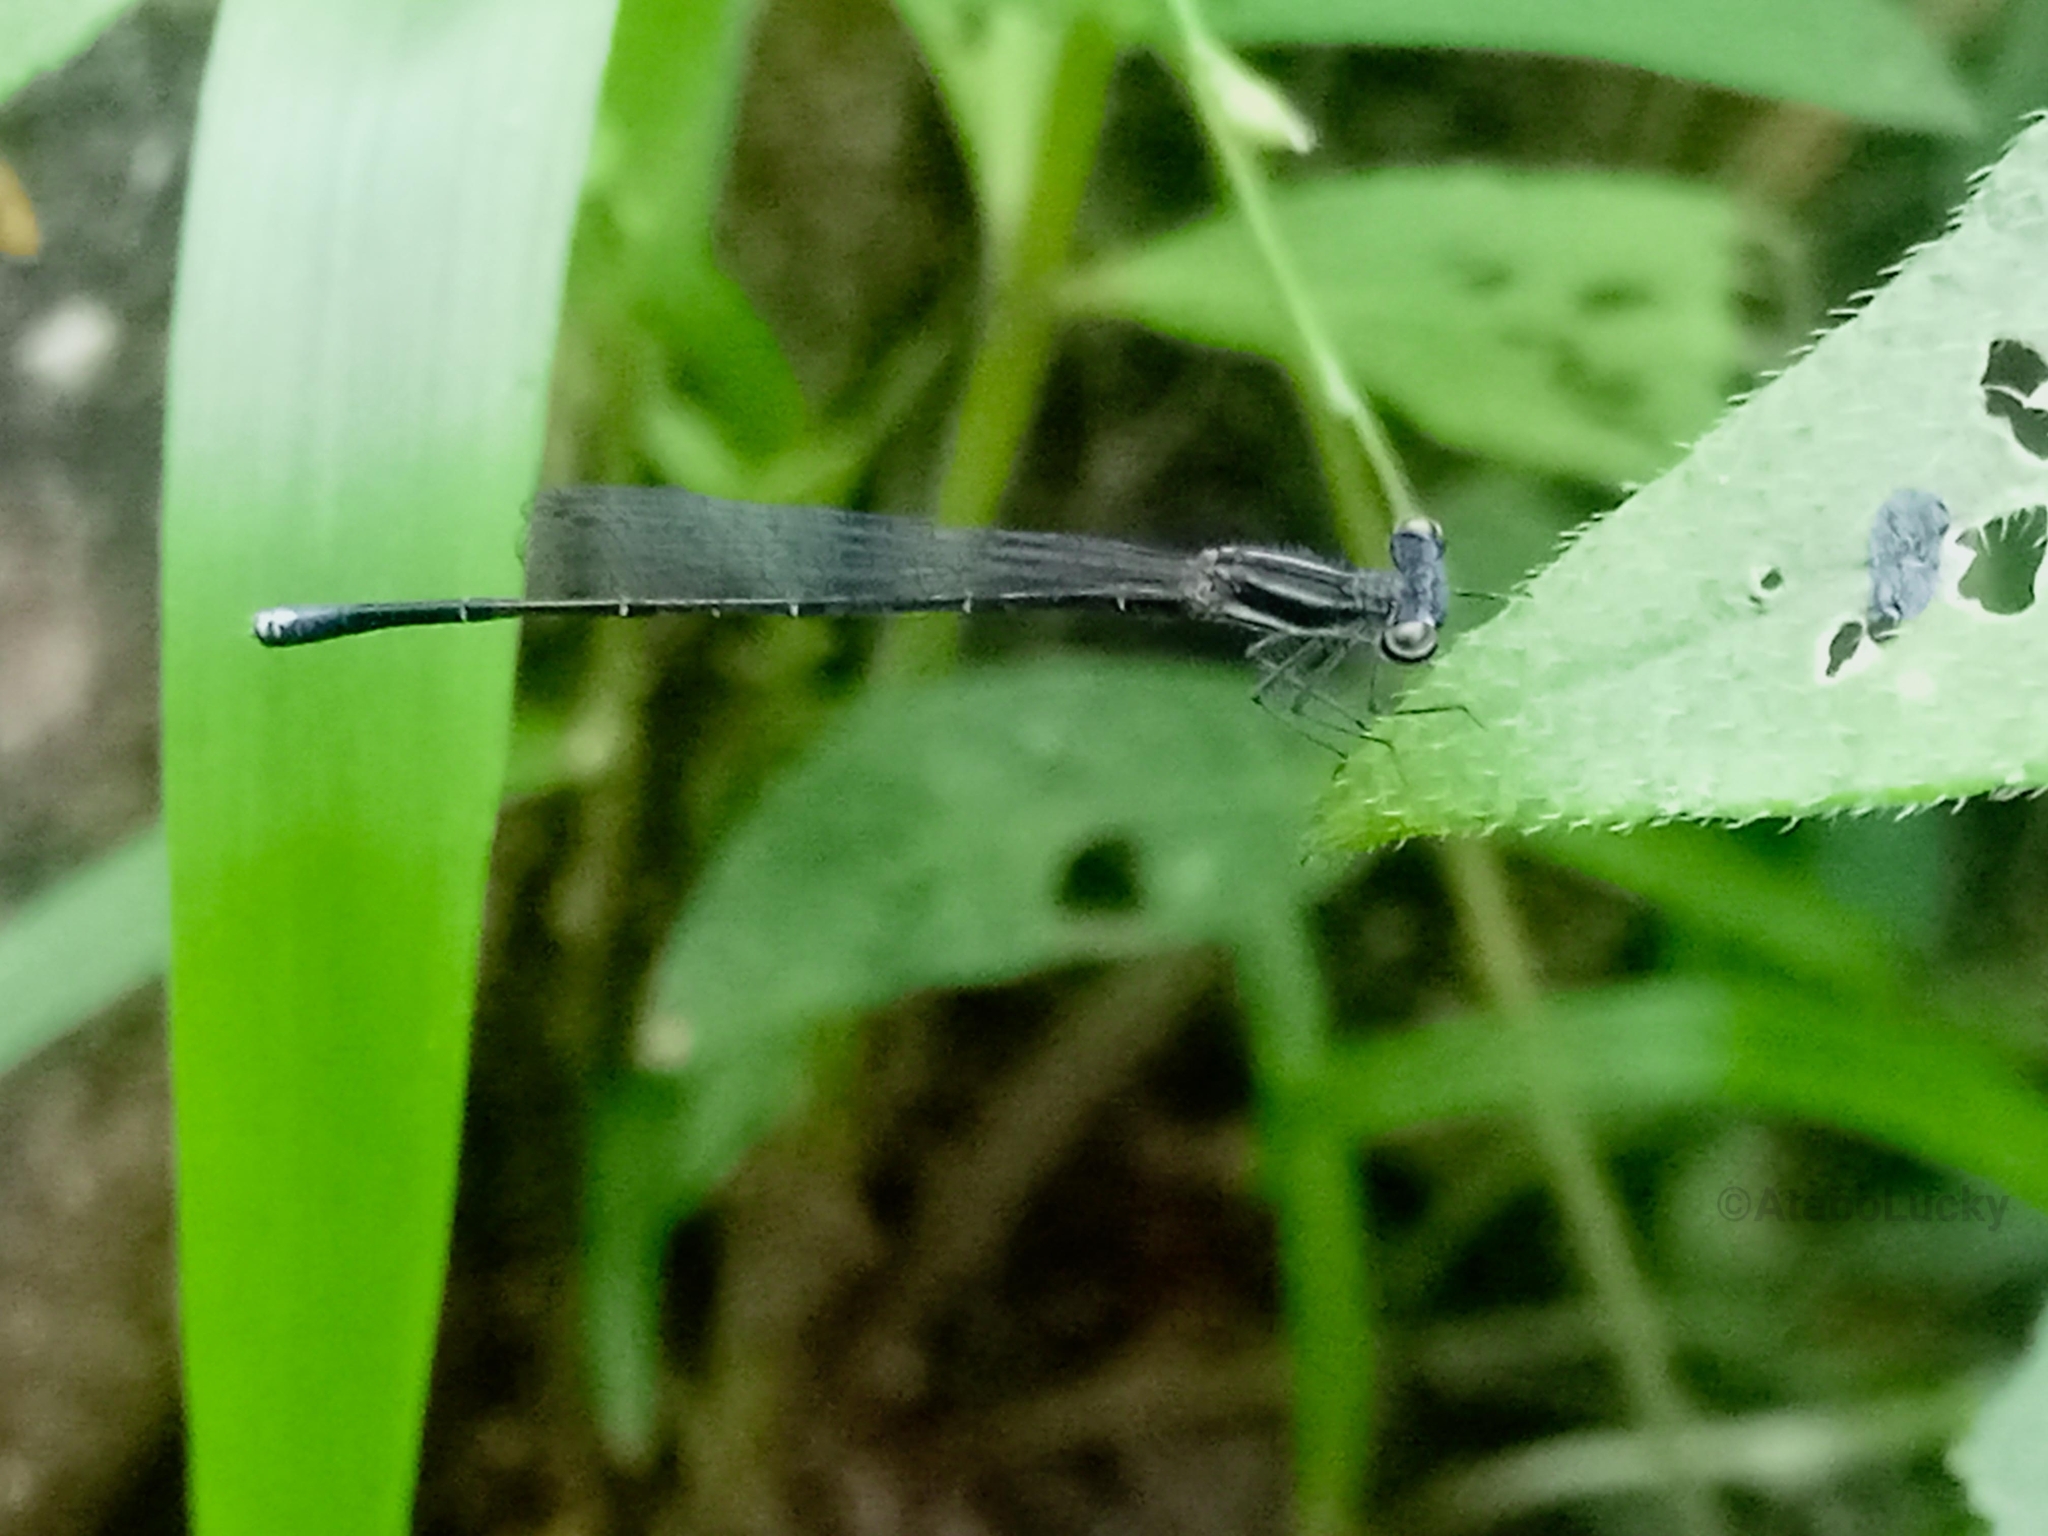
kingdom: Animalia
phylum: Arthropoda
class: Insecta
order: Odonata
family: Platycnemididae
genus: Elattoneura
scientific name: Elattoneura nigra
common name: Black threadtail
